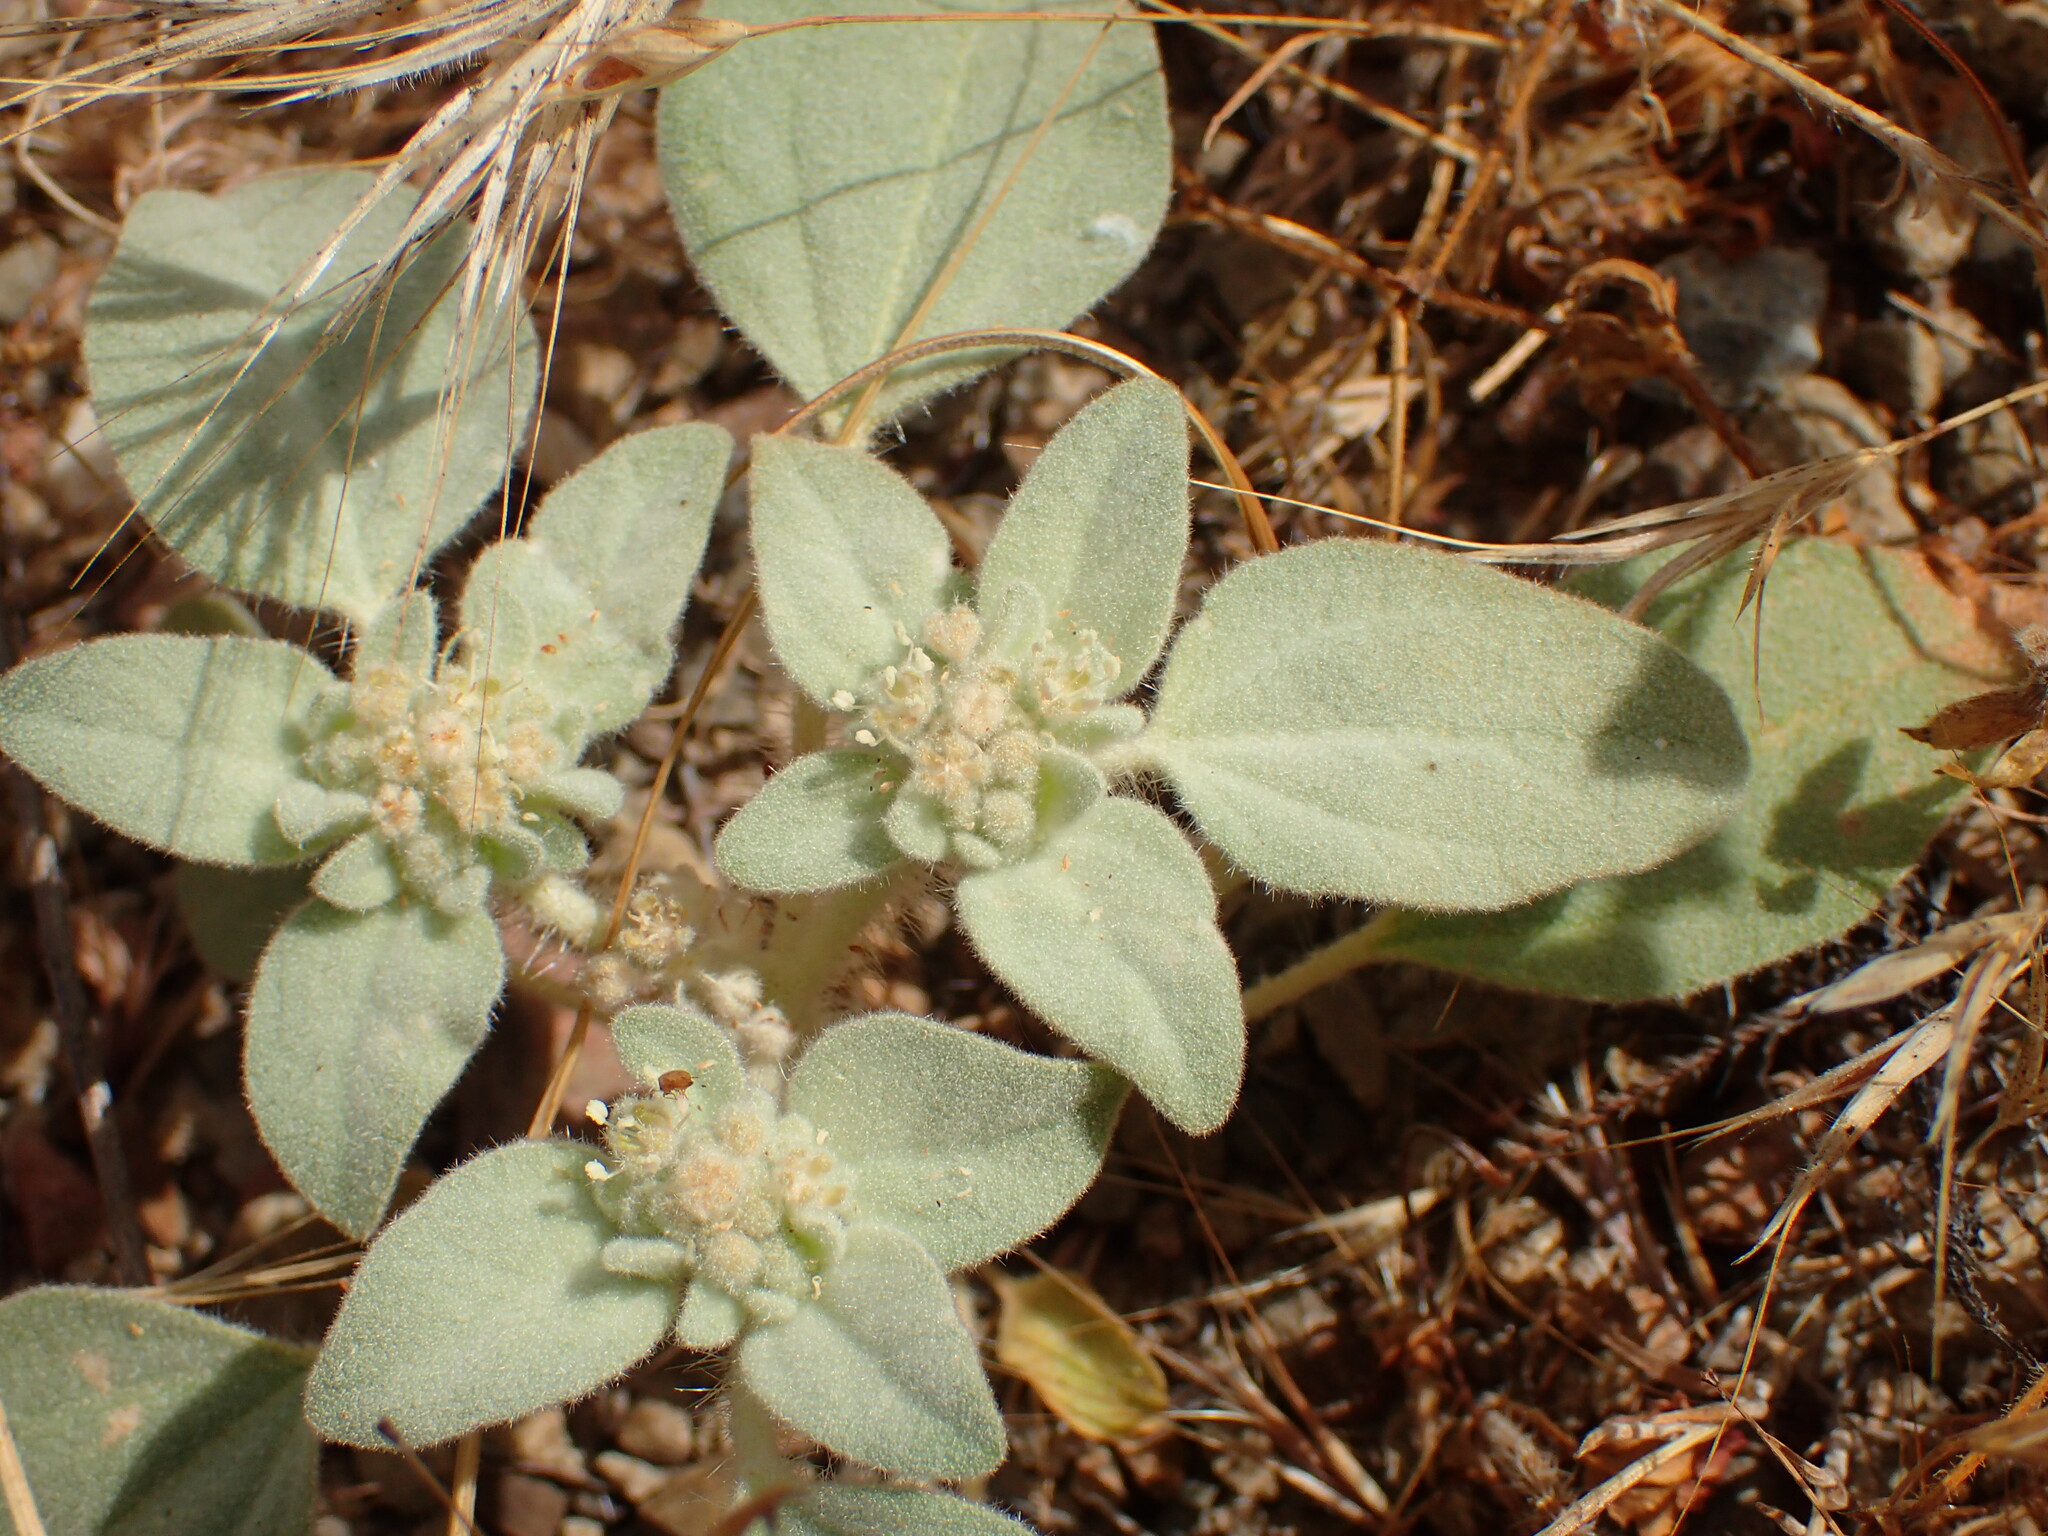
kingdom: Plantae
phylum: Tracheophyta
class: Magnoliopsida
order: Malpighiales
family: Euphorbiaceae
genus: Croton
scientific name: Croton setiger
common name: Dove weed
